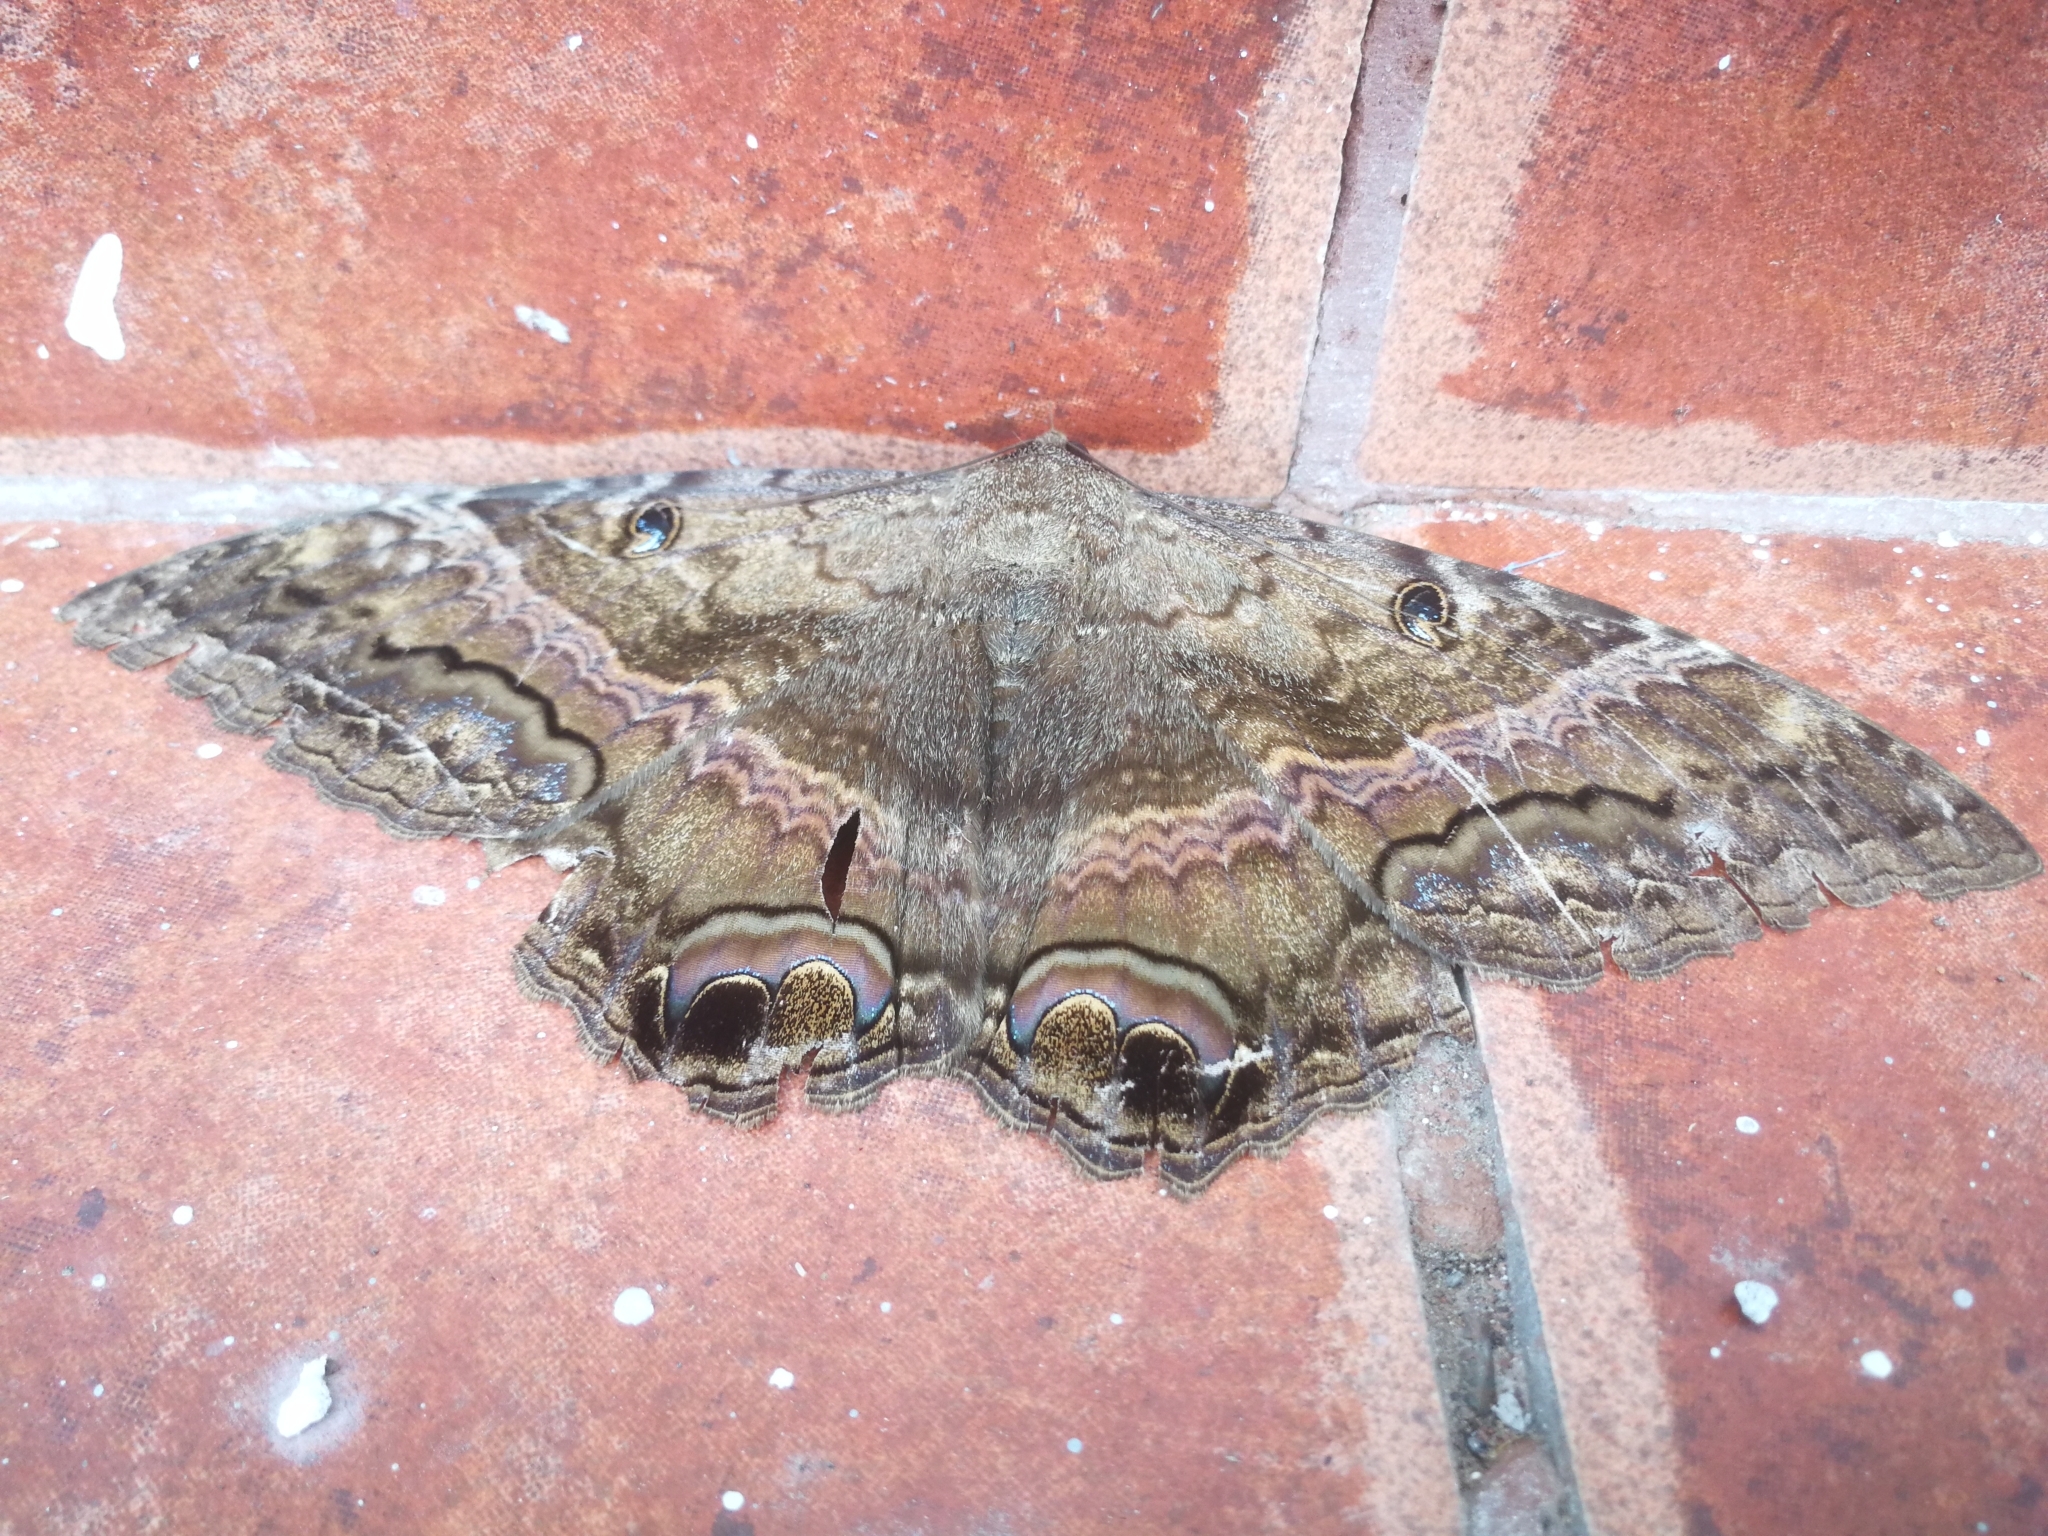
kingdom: Animalia
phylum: Arthropoda
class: Insecta
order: Lepidoptera
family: Erebidae
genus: Ascalapha
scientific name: Ascalapha odorata
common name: Black witch
